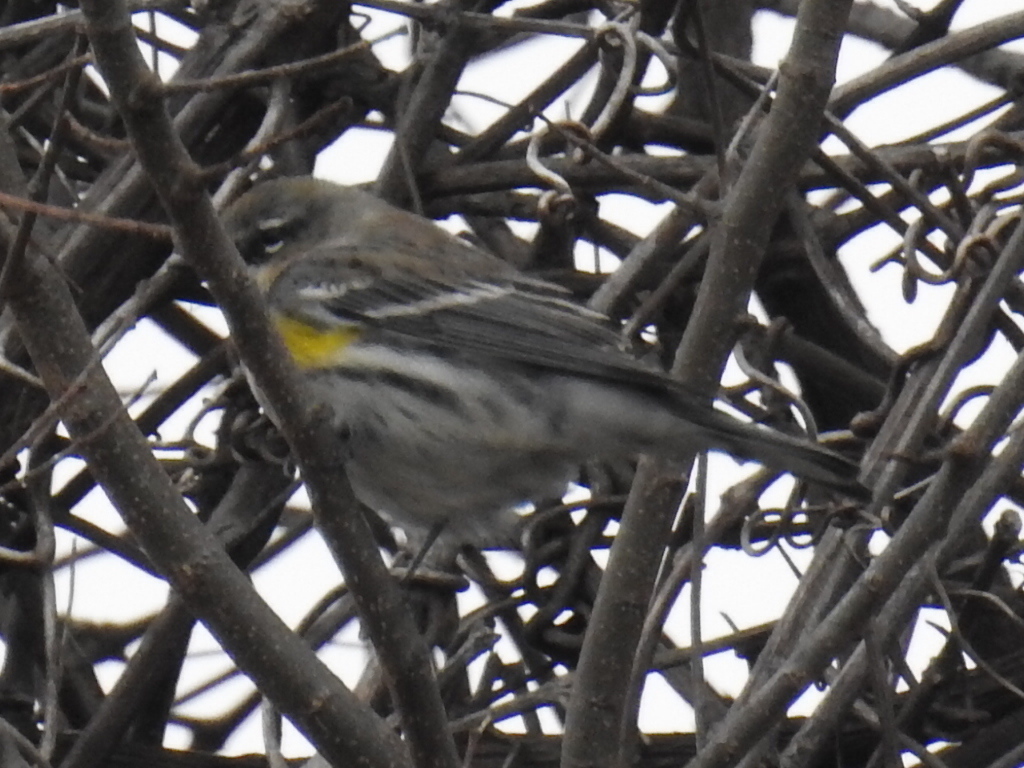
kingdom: Animalia
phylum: Chordata
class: Aves
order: Passeriformes
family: Parulidae
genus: Setophaga
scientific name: Setophaga coronata
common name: Myrtle warbler
